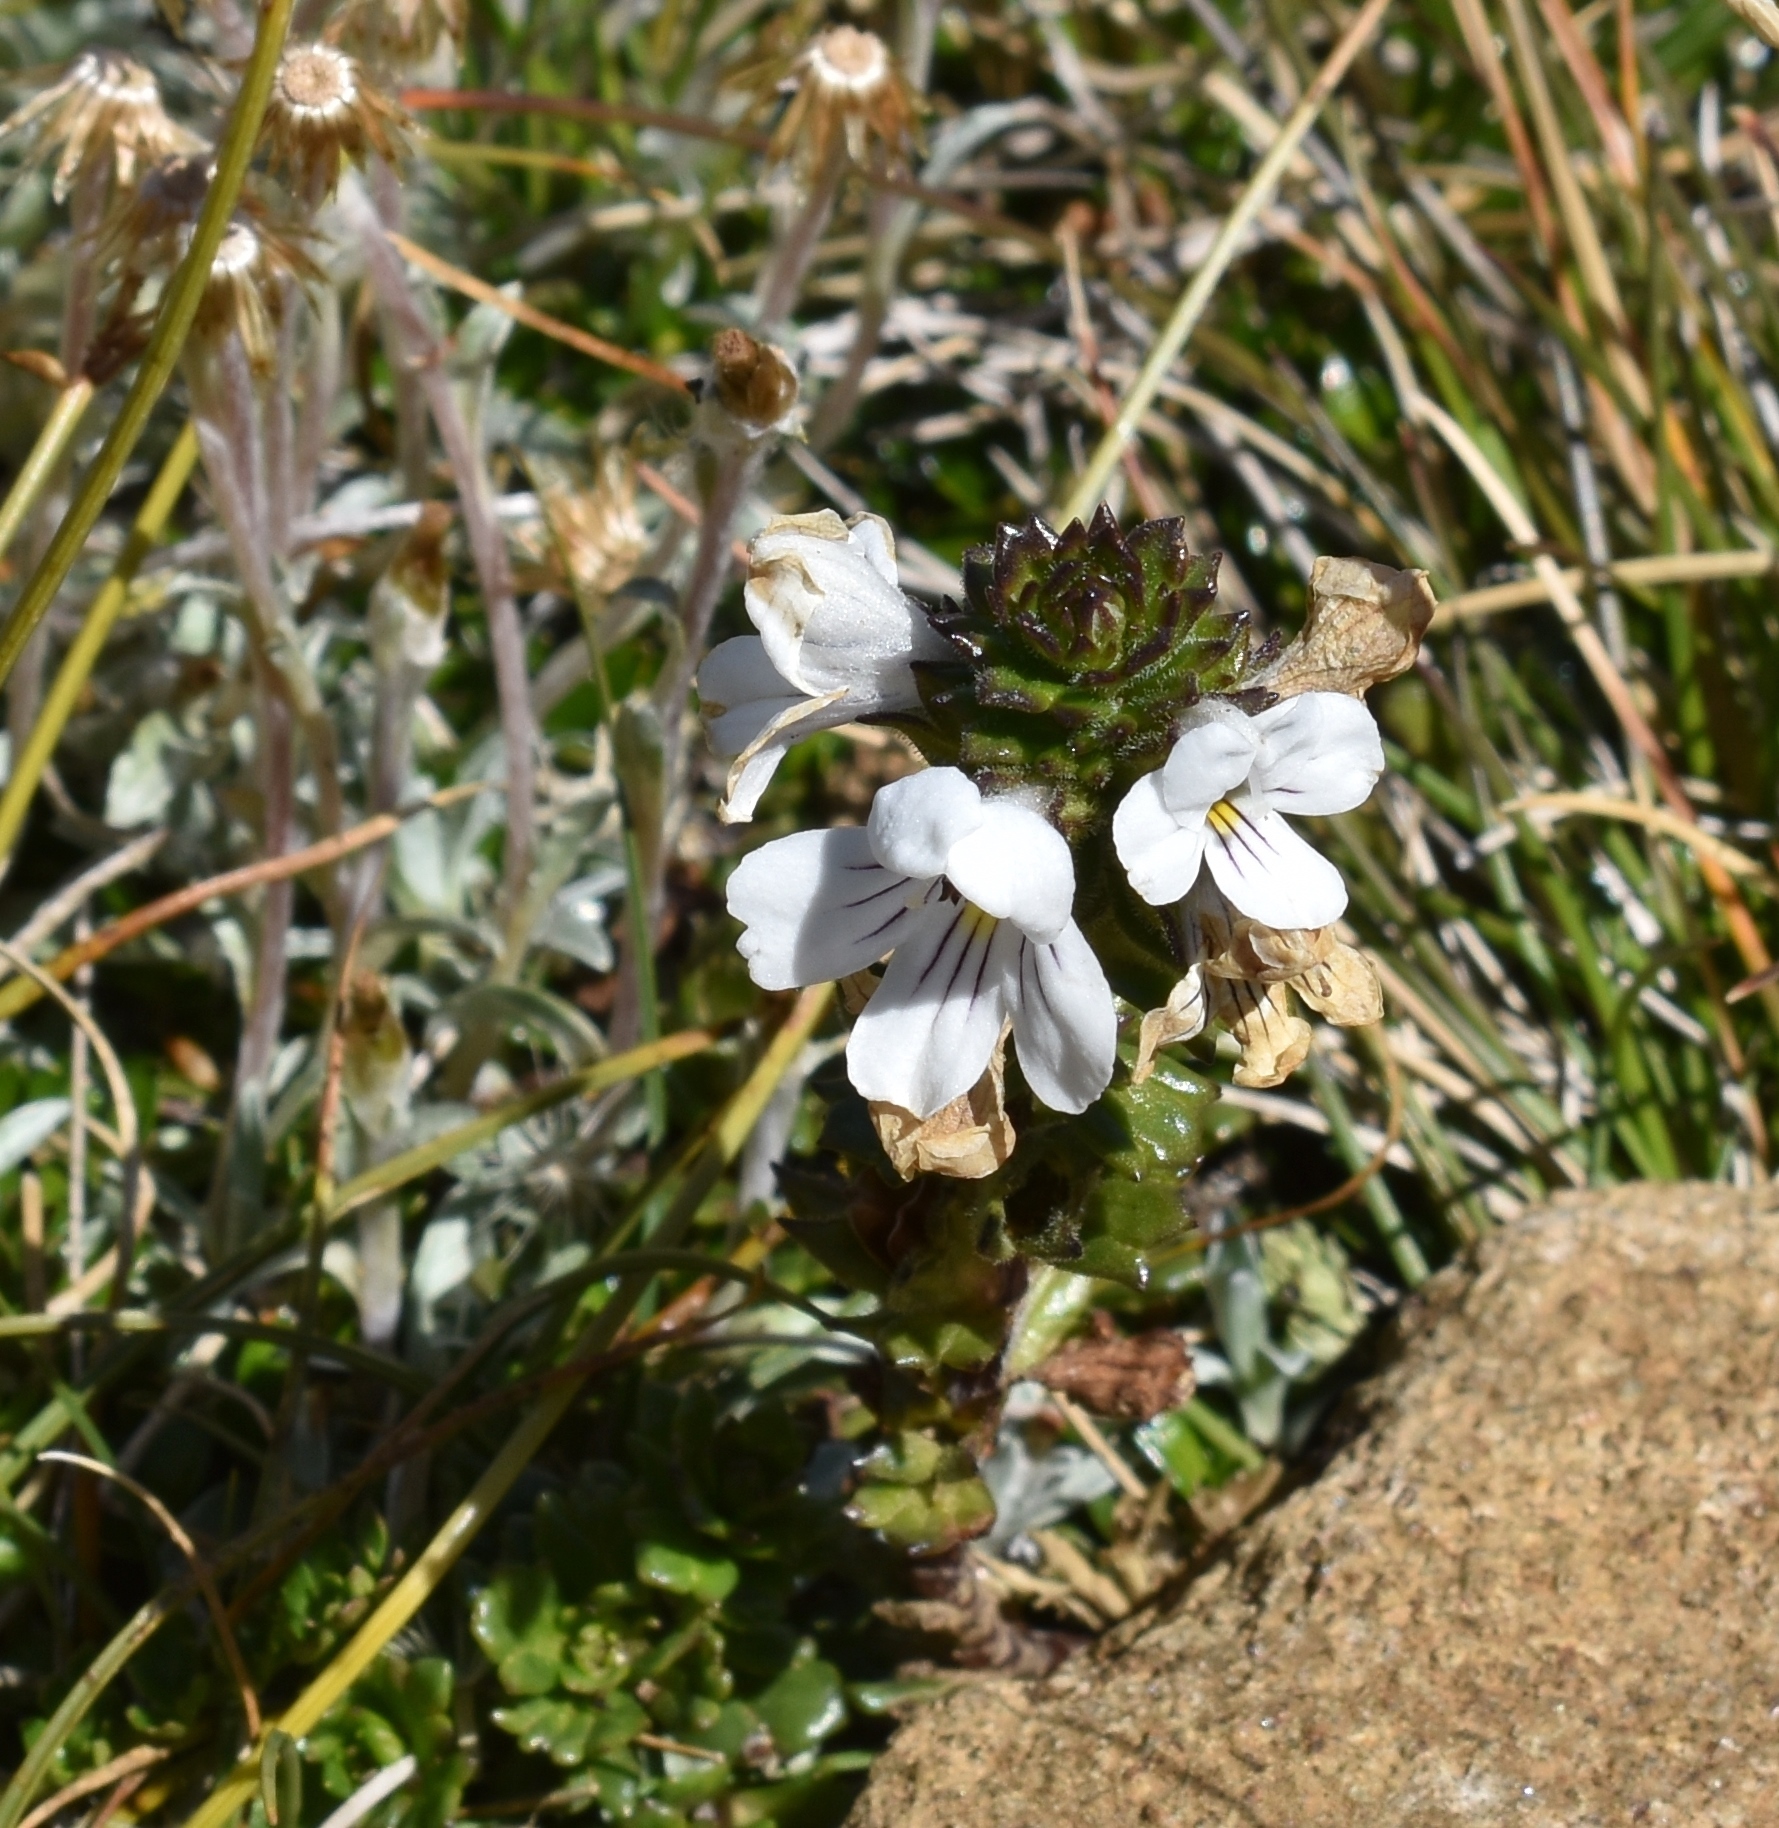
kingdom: Plantae
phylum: Tracheophyta
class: Magnoliopsida
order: Lamiales
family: Orobanchaceae
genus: Euphrasia
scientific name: Euphrasia striata
